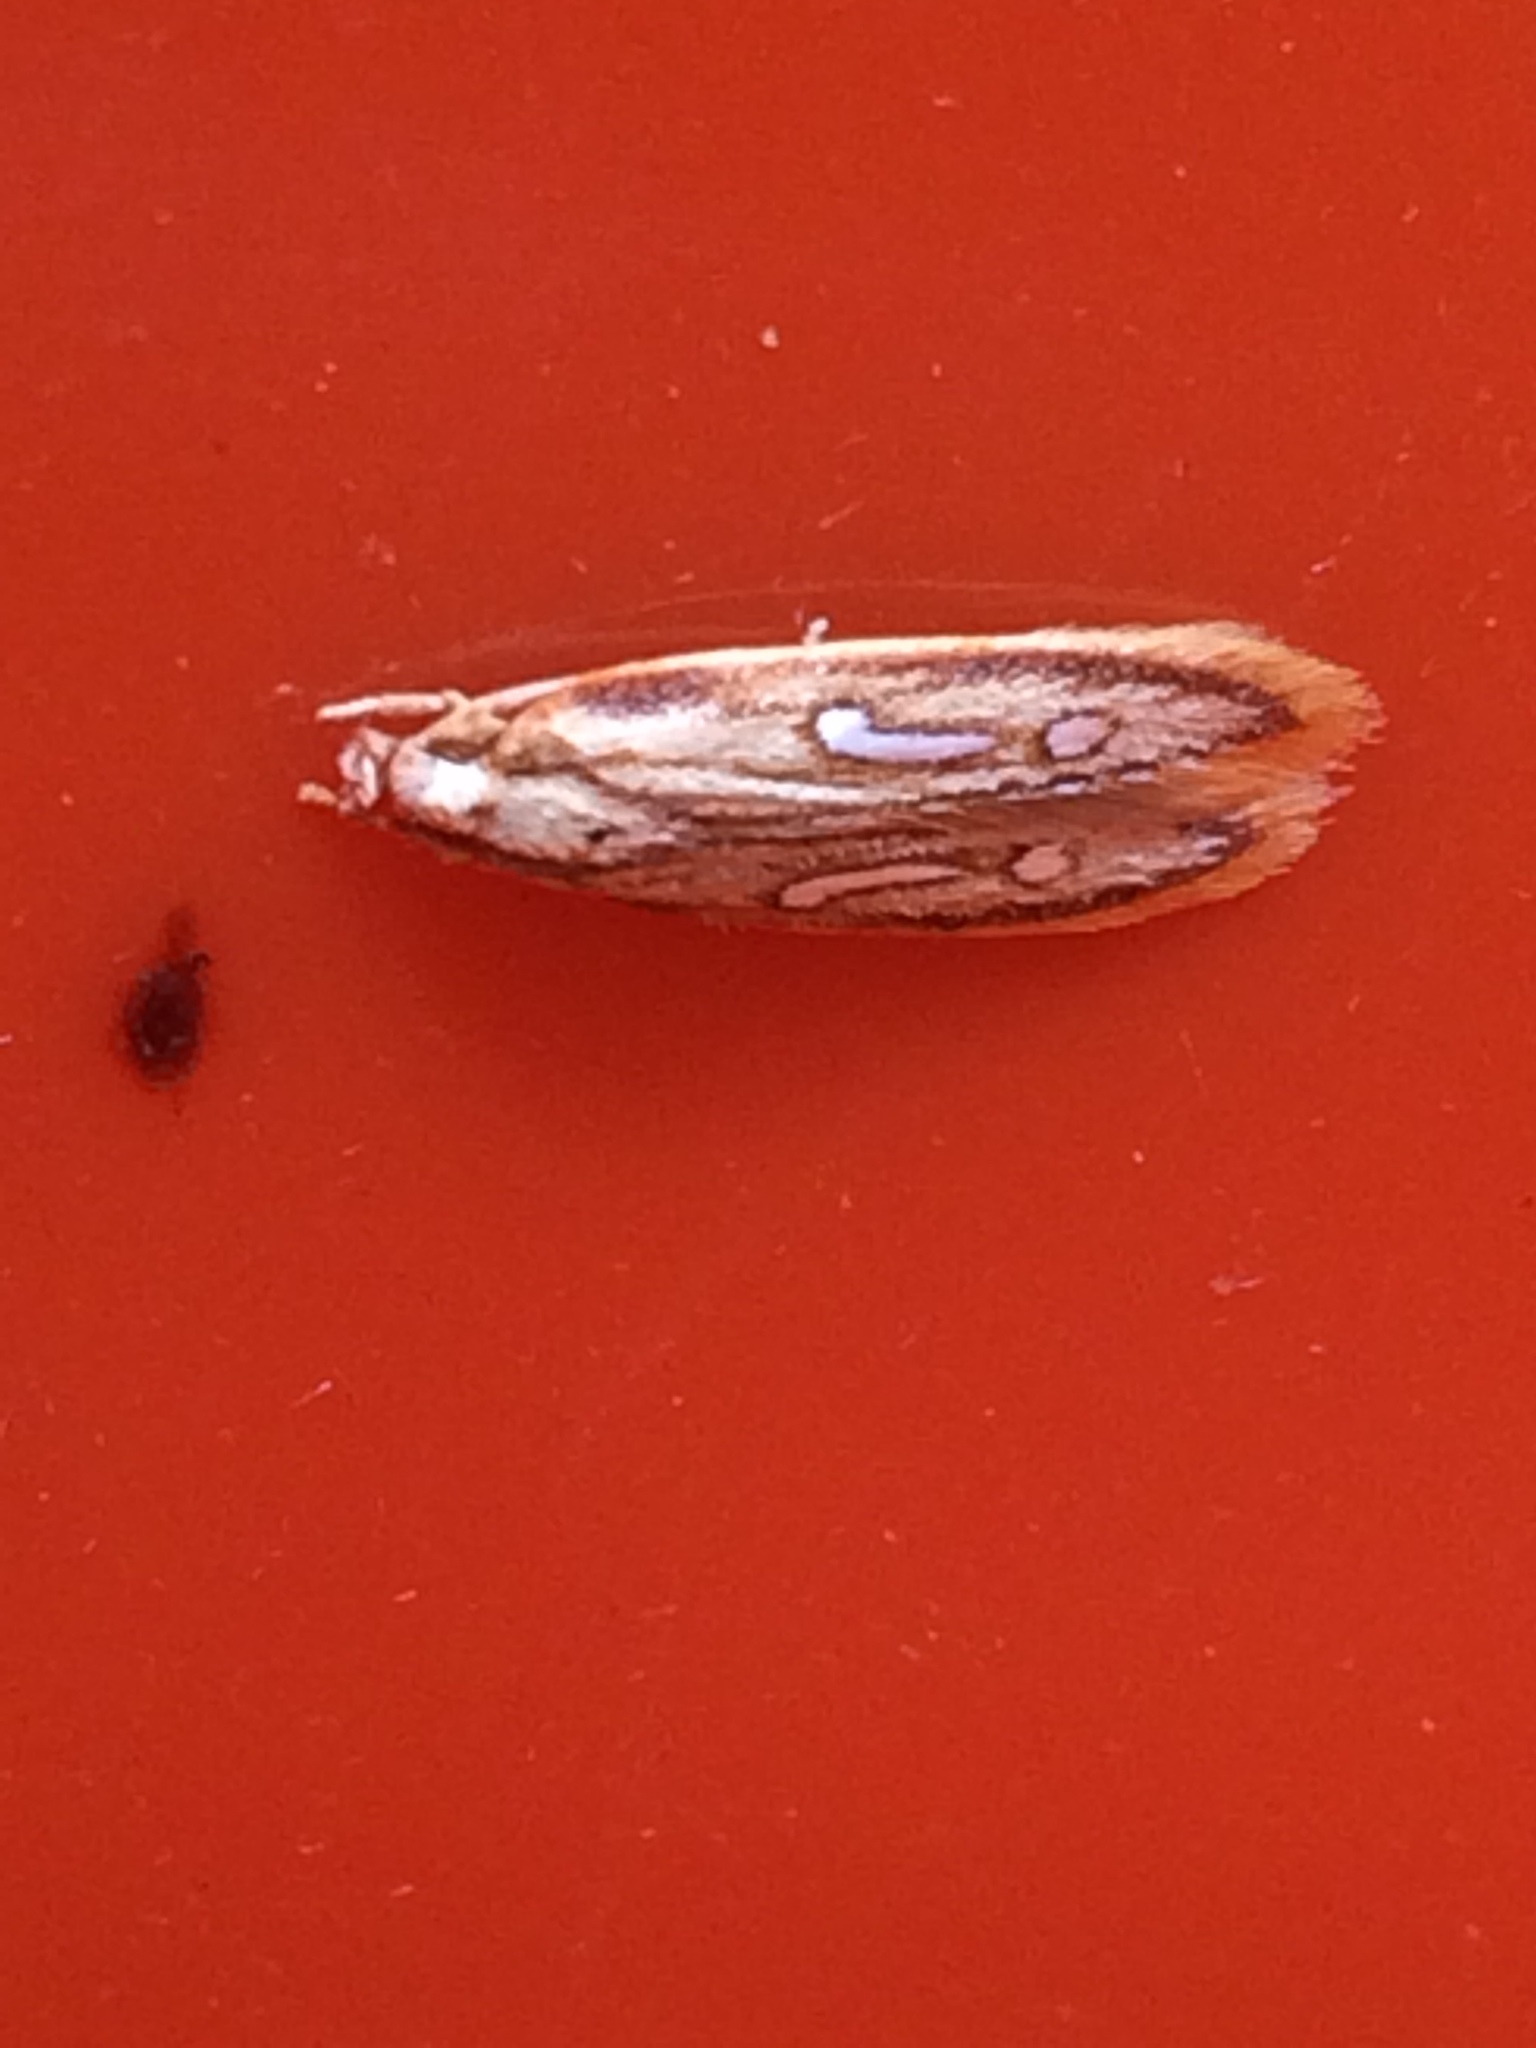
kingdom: Animalia
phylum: Arthropoda
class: Insecta
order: Lepidoptera
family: Coleophoridae
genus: Homaledra
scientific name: Homaledra heptathalama
